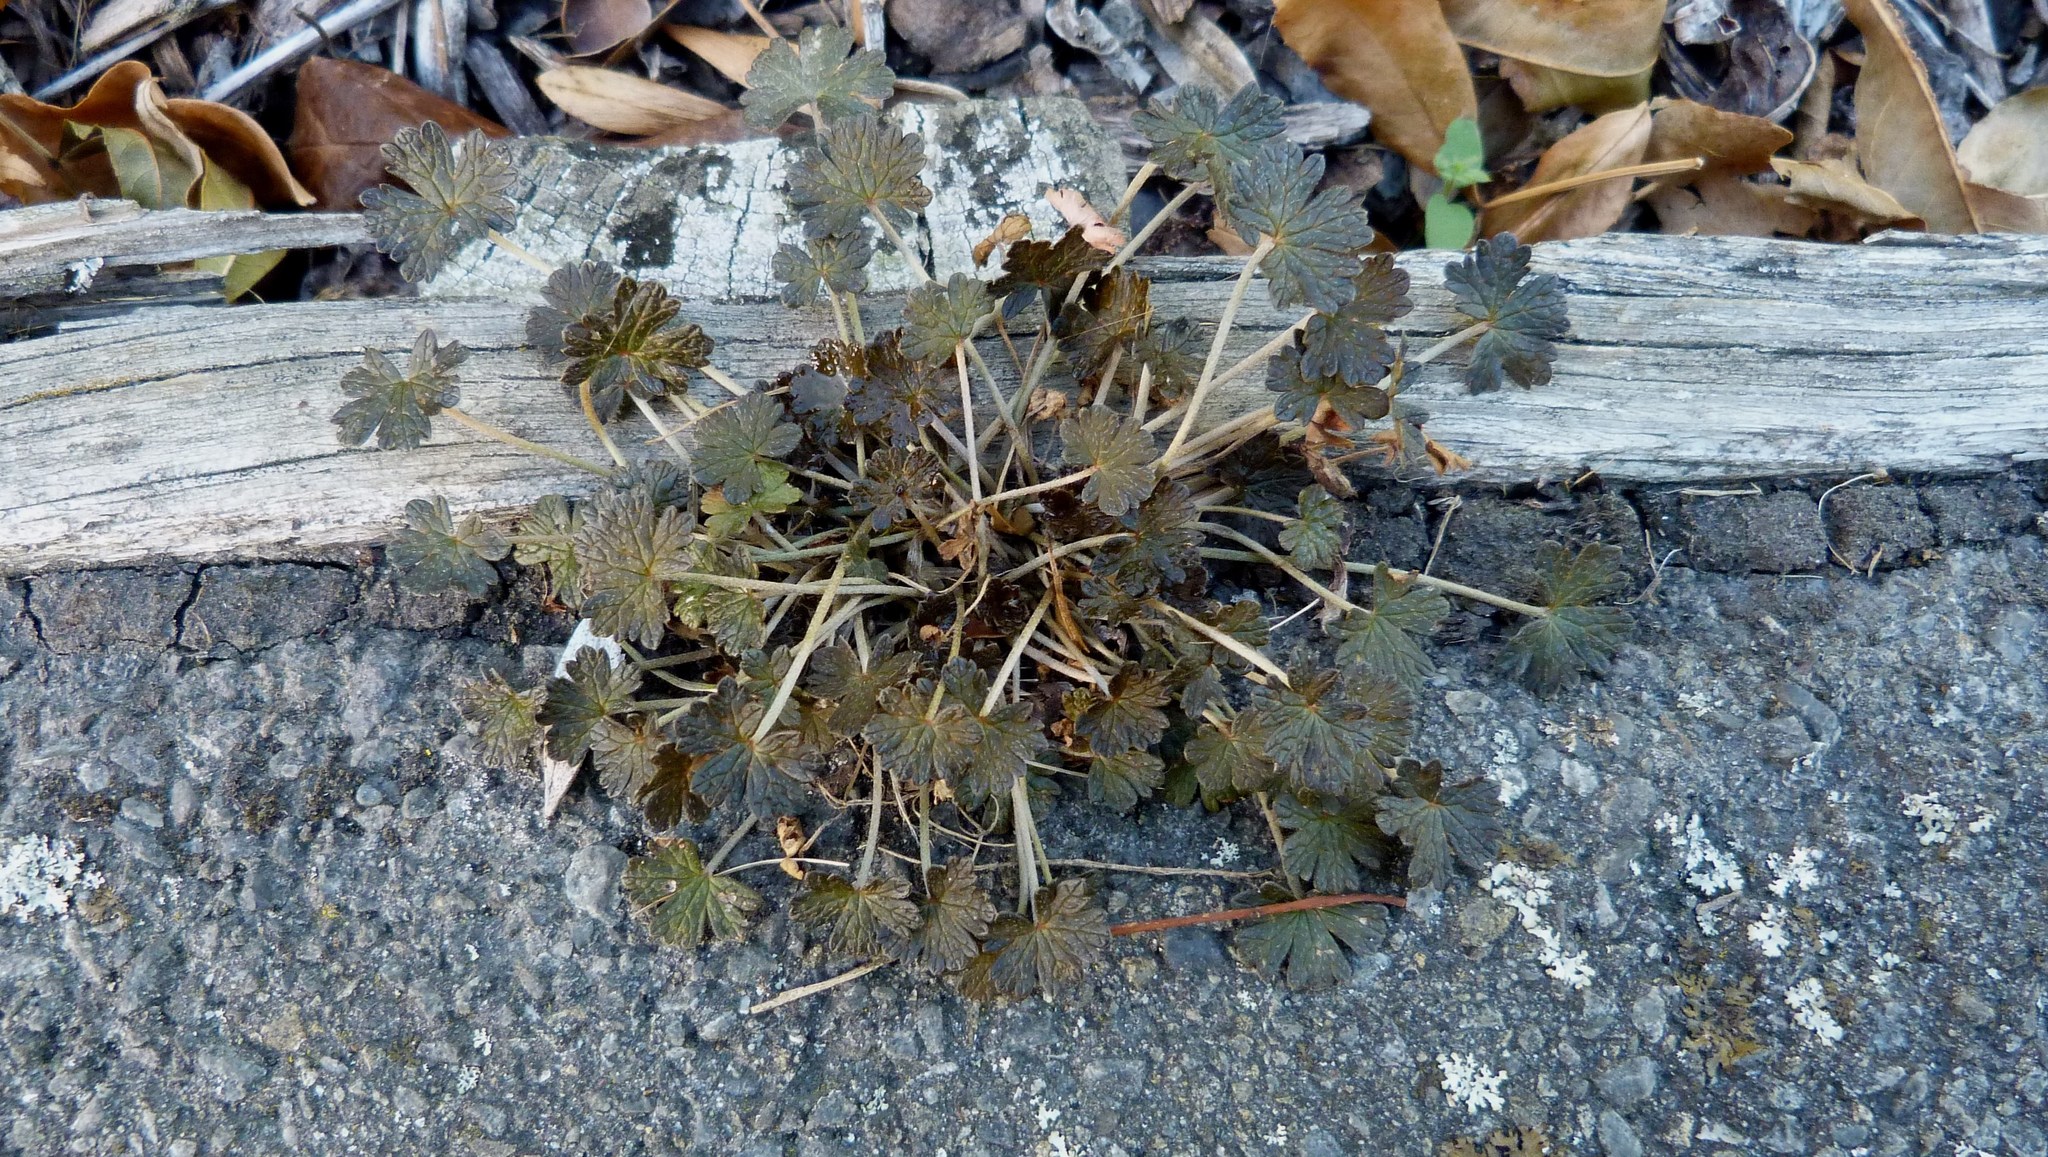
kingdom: Plantae
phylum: Tracheophyta
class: Magnoliopsida
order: Geraniales
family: Geraniaceae
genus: Geranium
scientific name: Geranium brevicaule
